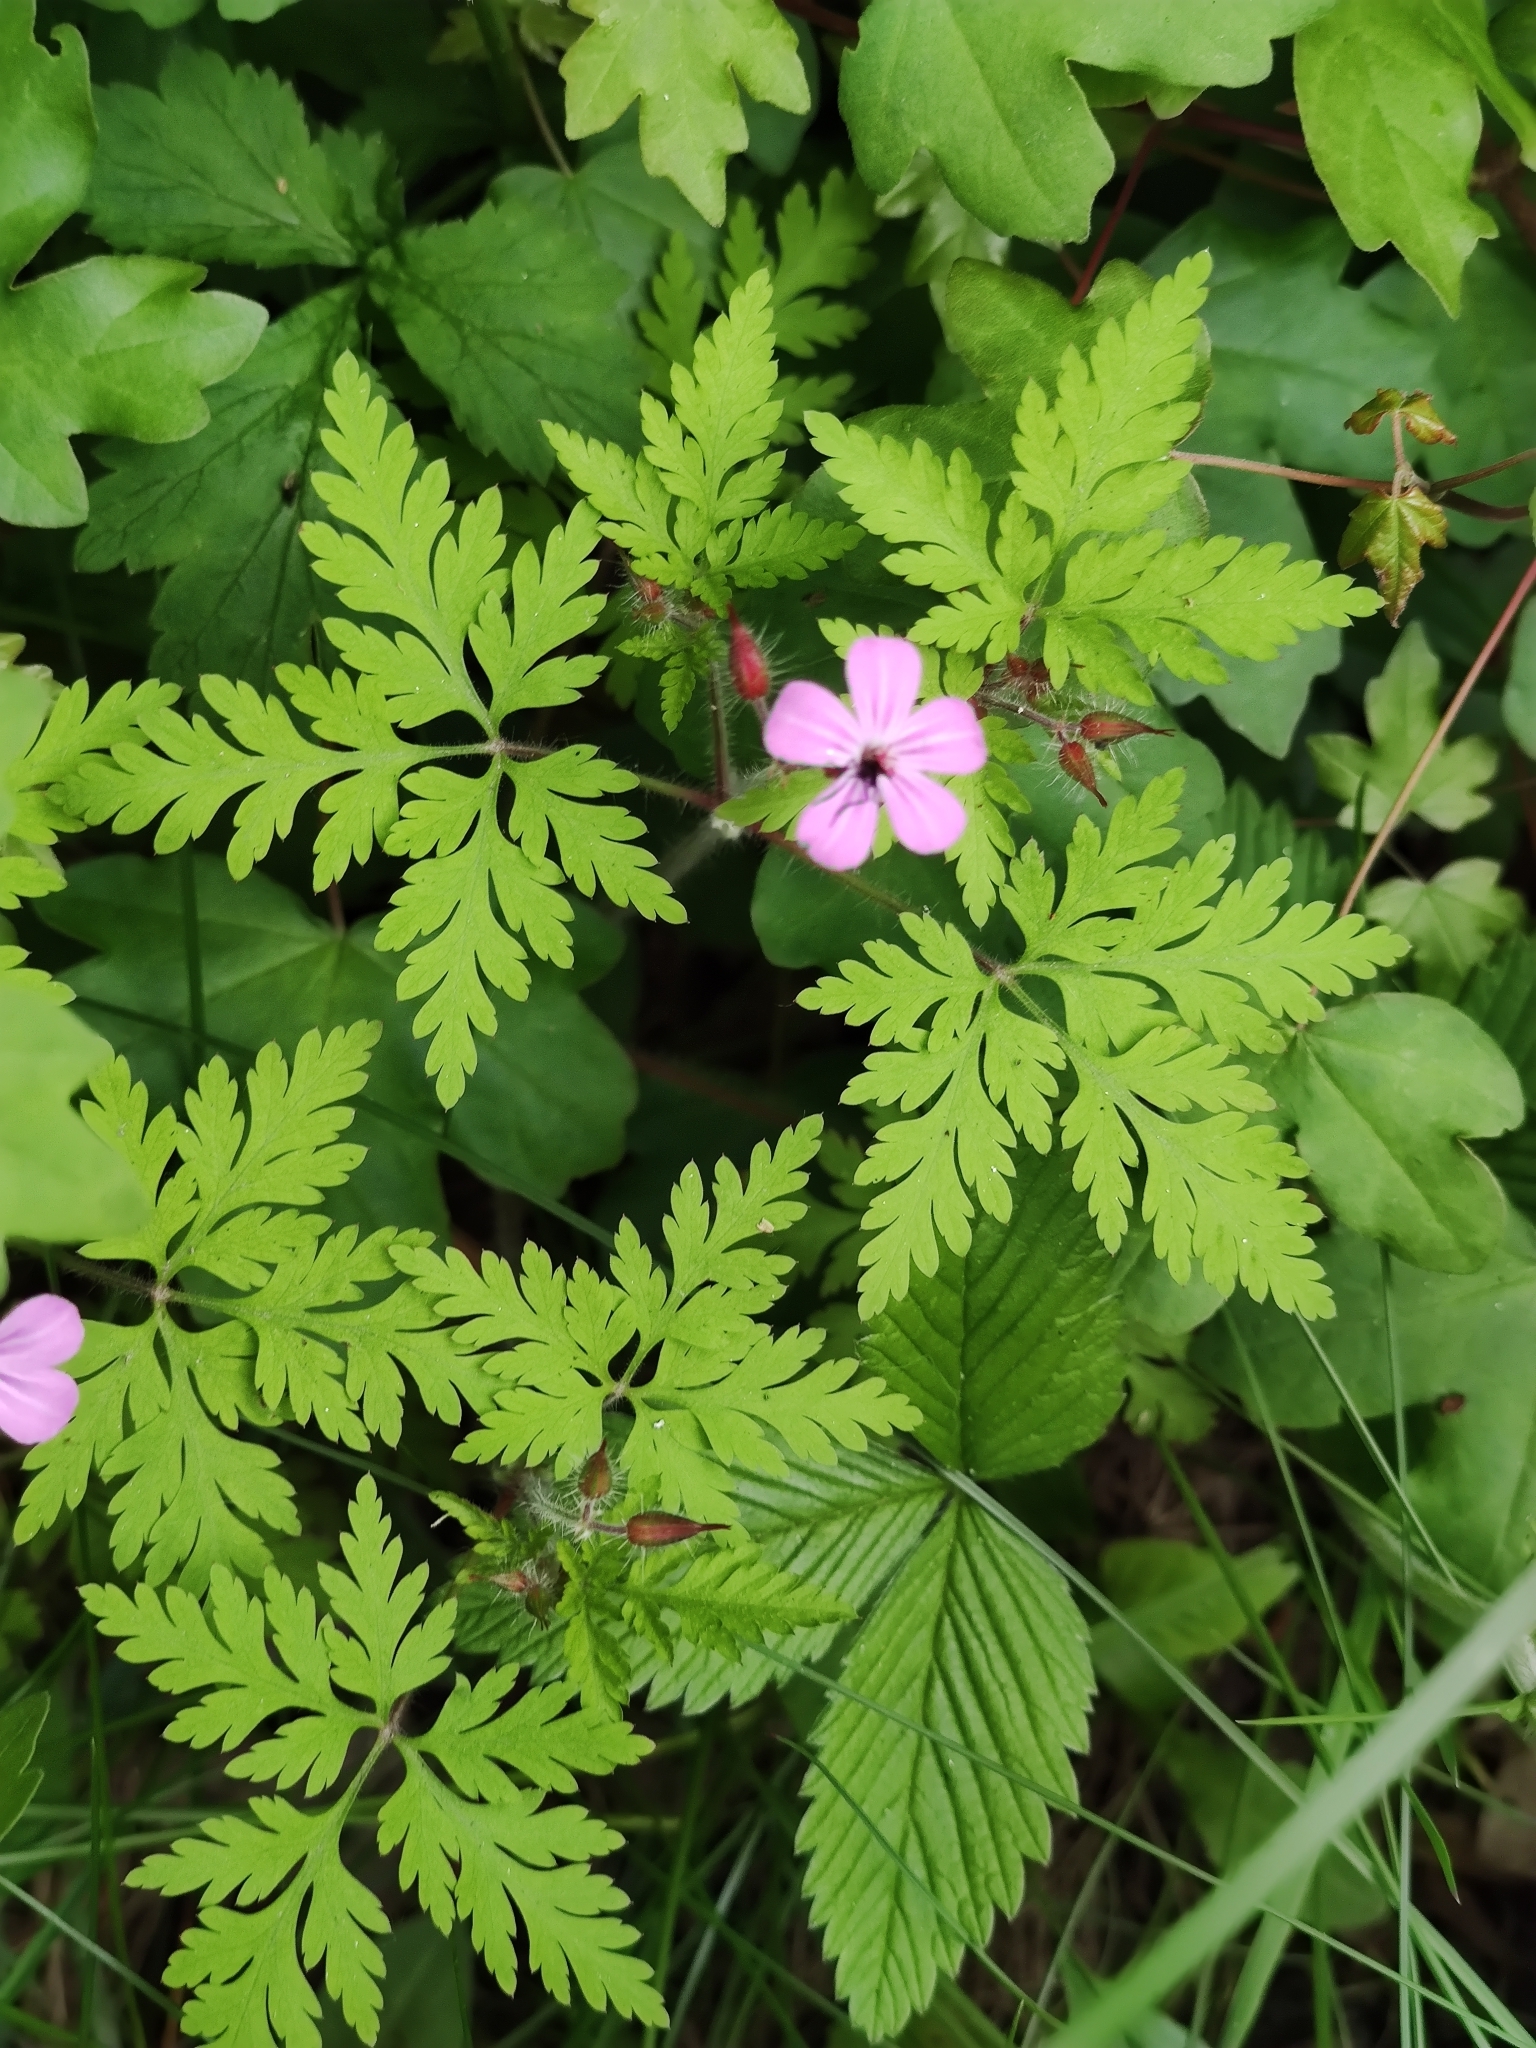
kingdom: Plantae
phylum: Tracheophyta
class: Magnoliopsida
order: Geraniales
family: Geraniaceae
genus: Geranium
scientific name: Geranium robertianum
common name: Herb-robert
